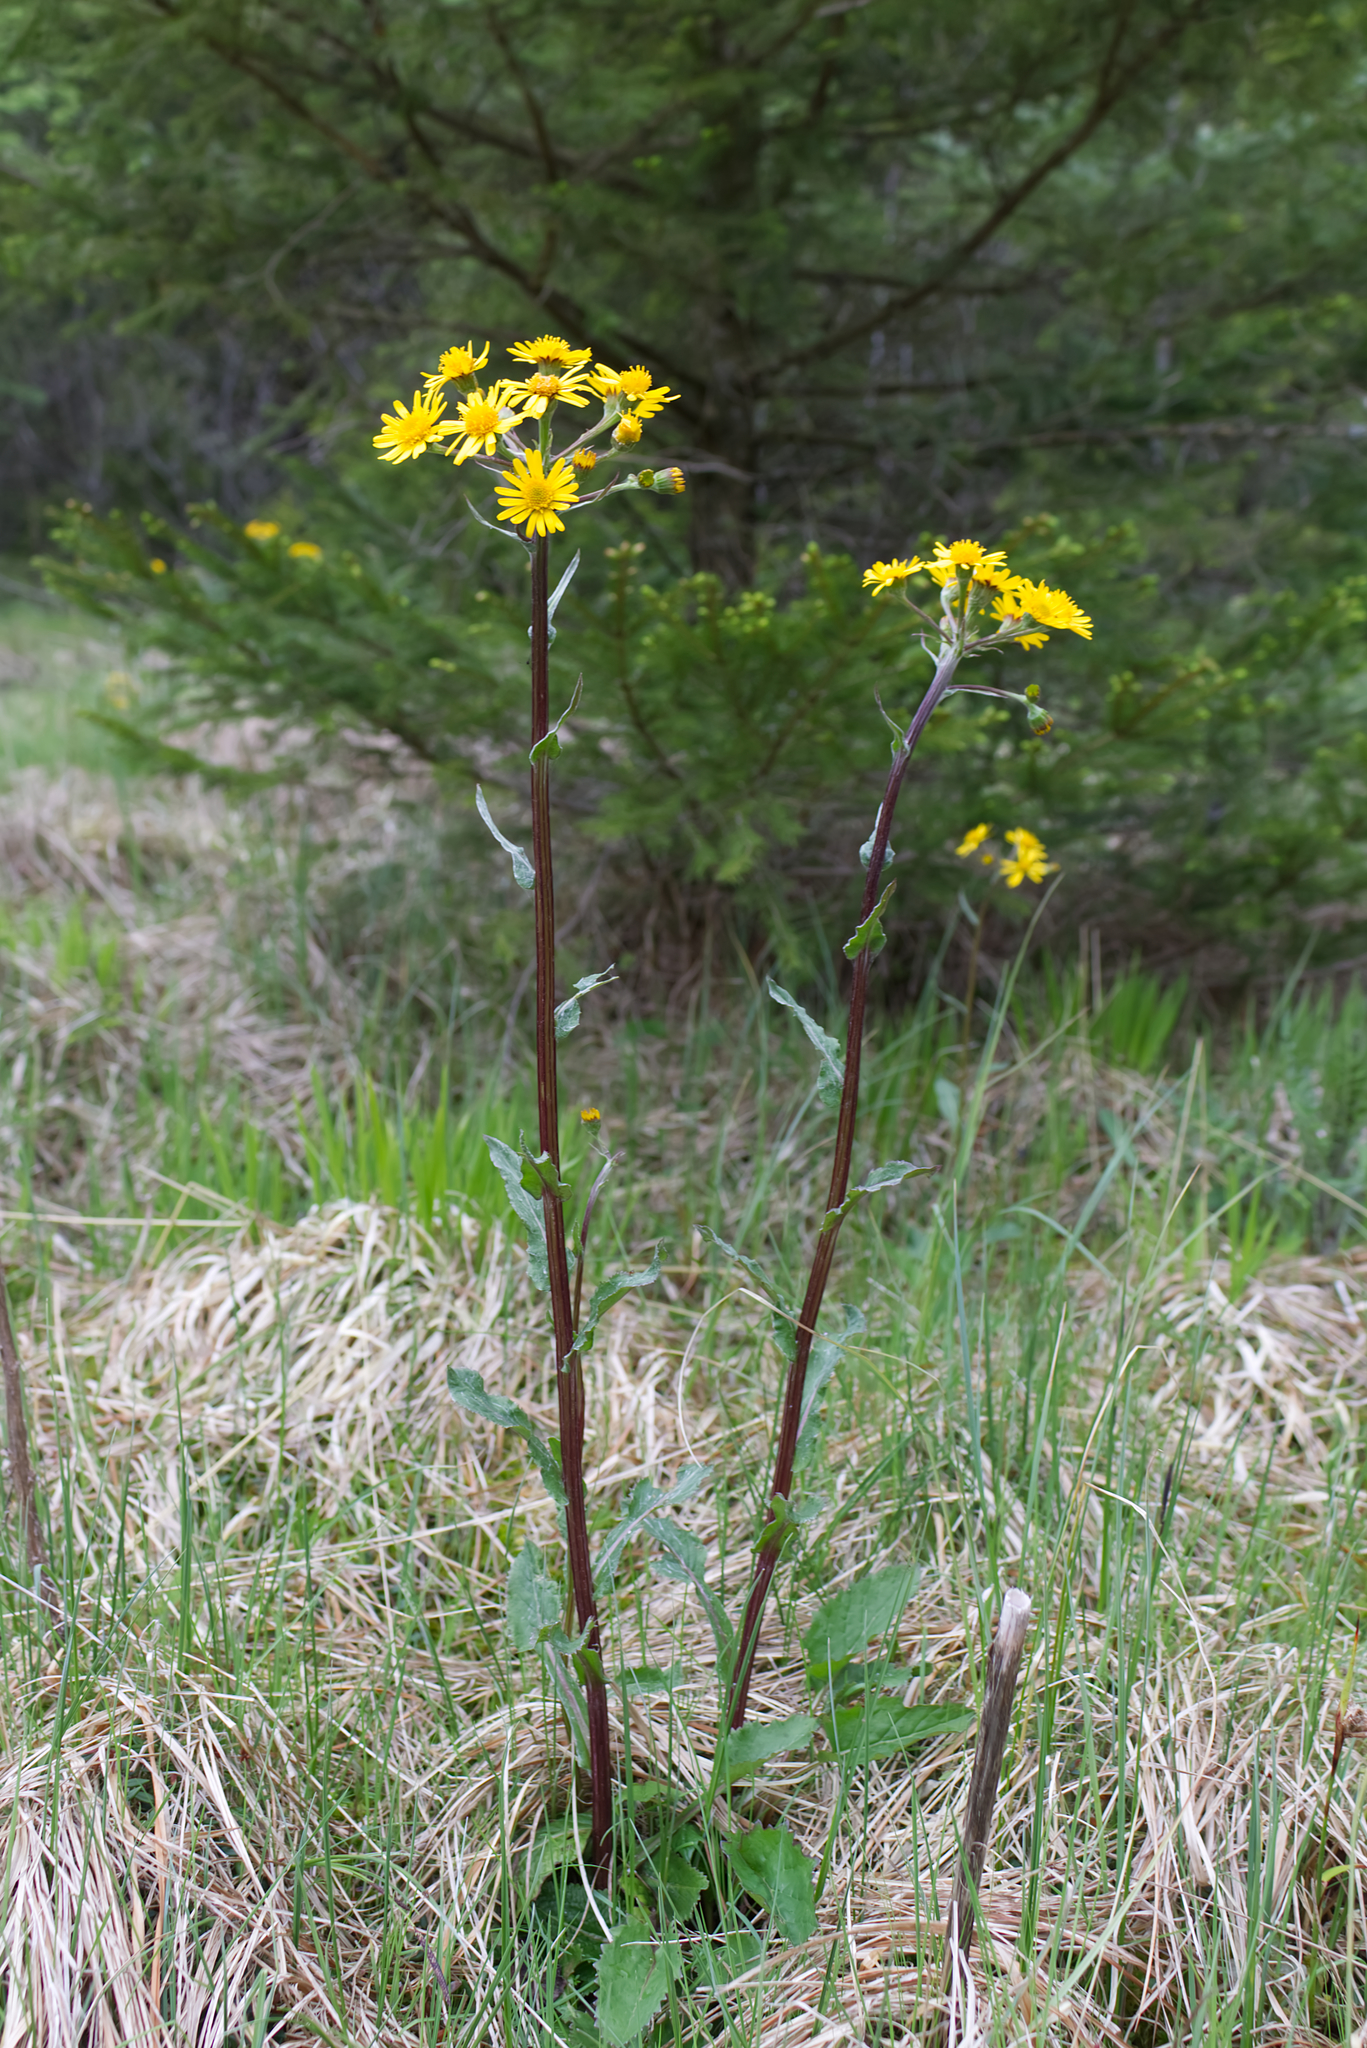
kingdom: Plantae
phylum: Tracheophyta
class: Magnoliopsida
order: Asterales
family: Asteraceae
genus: Tephroseris
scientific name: Tephroseris crispa
